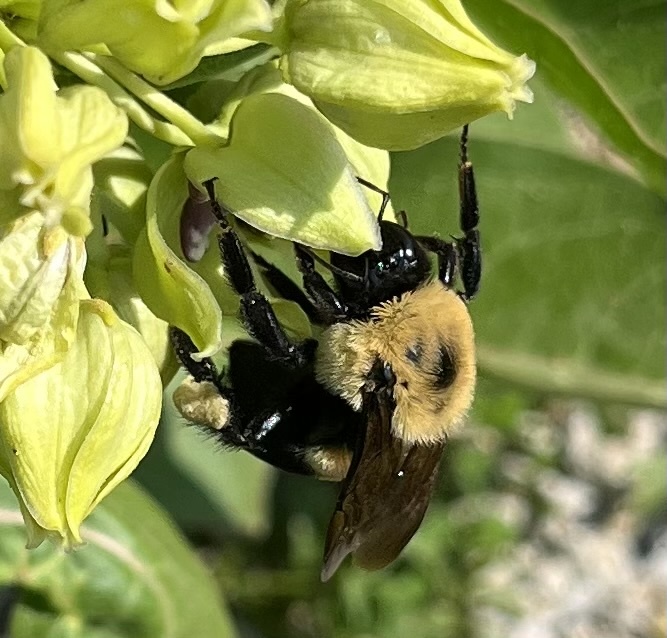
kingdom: Animalia
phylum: Arthropoda
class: Insecta
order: Hymenoptera
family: Apidae
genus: Bombus
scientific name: Bombus griseocollis
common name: Brown-belted bumble bee
